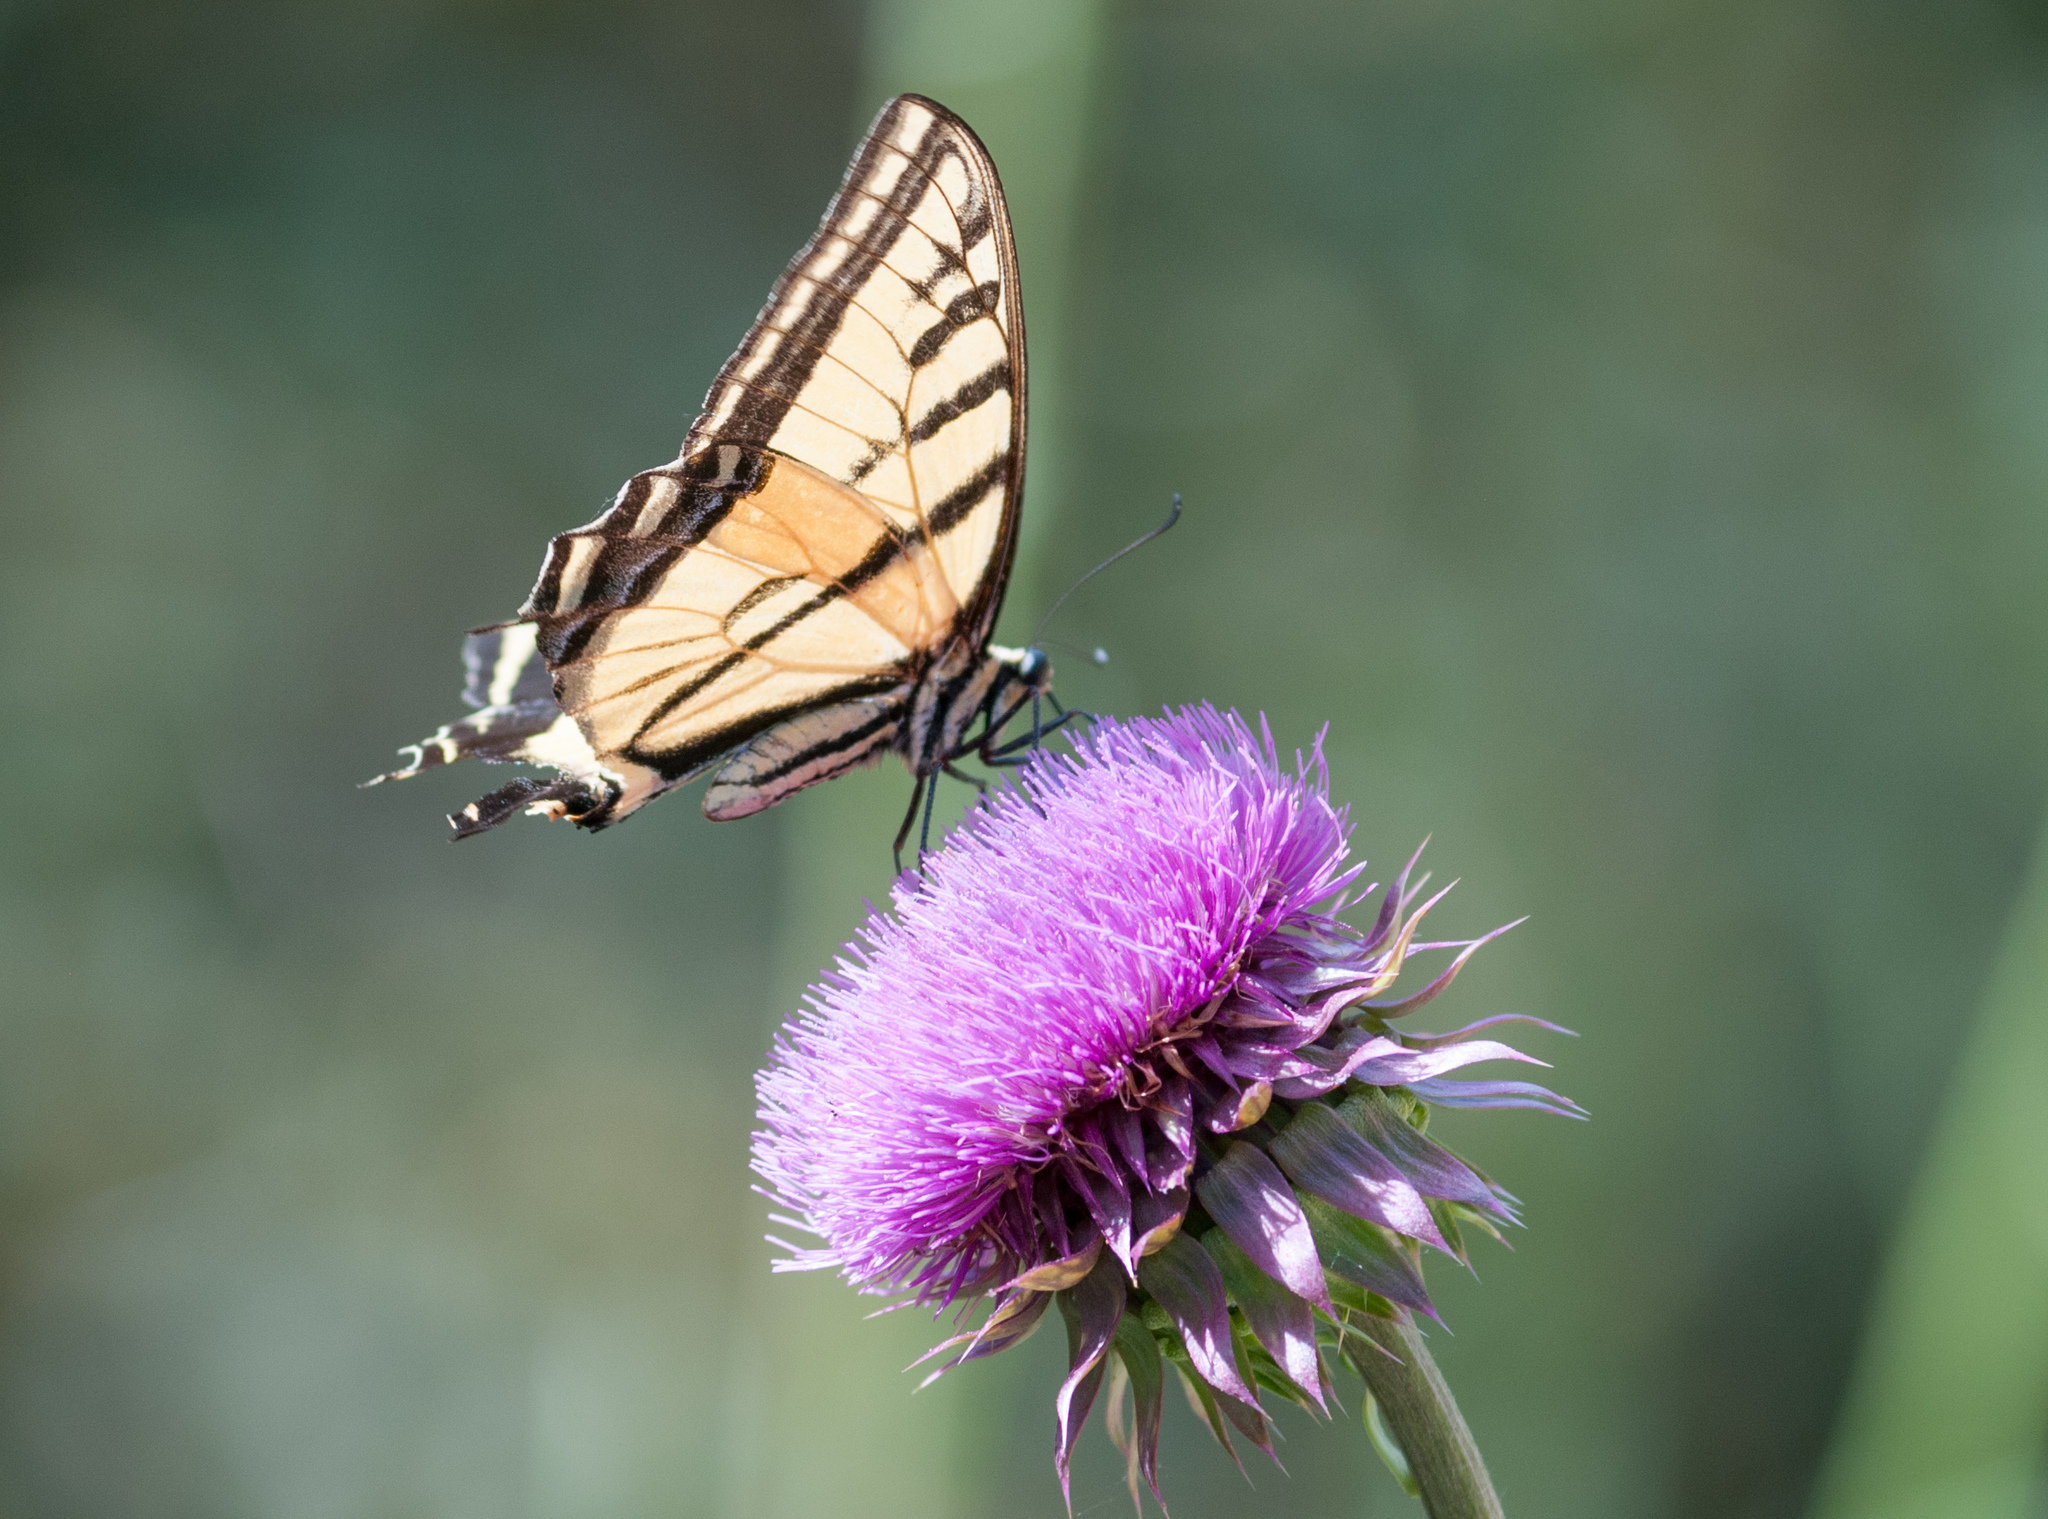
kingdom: Animalia
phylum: Arthropoda
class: Insecta
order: Lepidoptera
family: Papilionidae
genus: Papilio
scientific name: Papilio multicaudata
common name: Two-tailed tiger swallowtail
